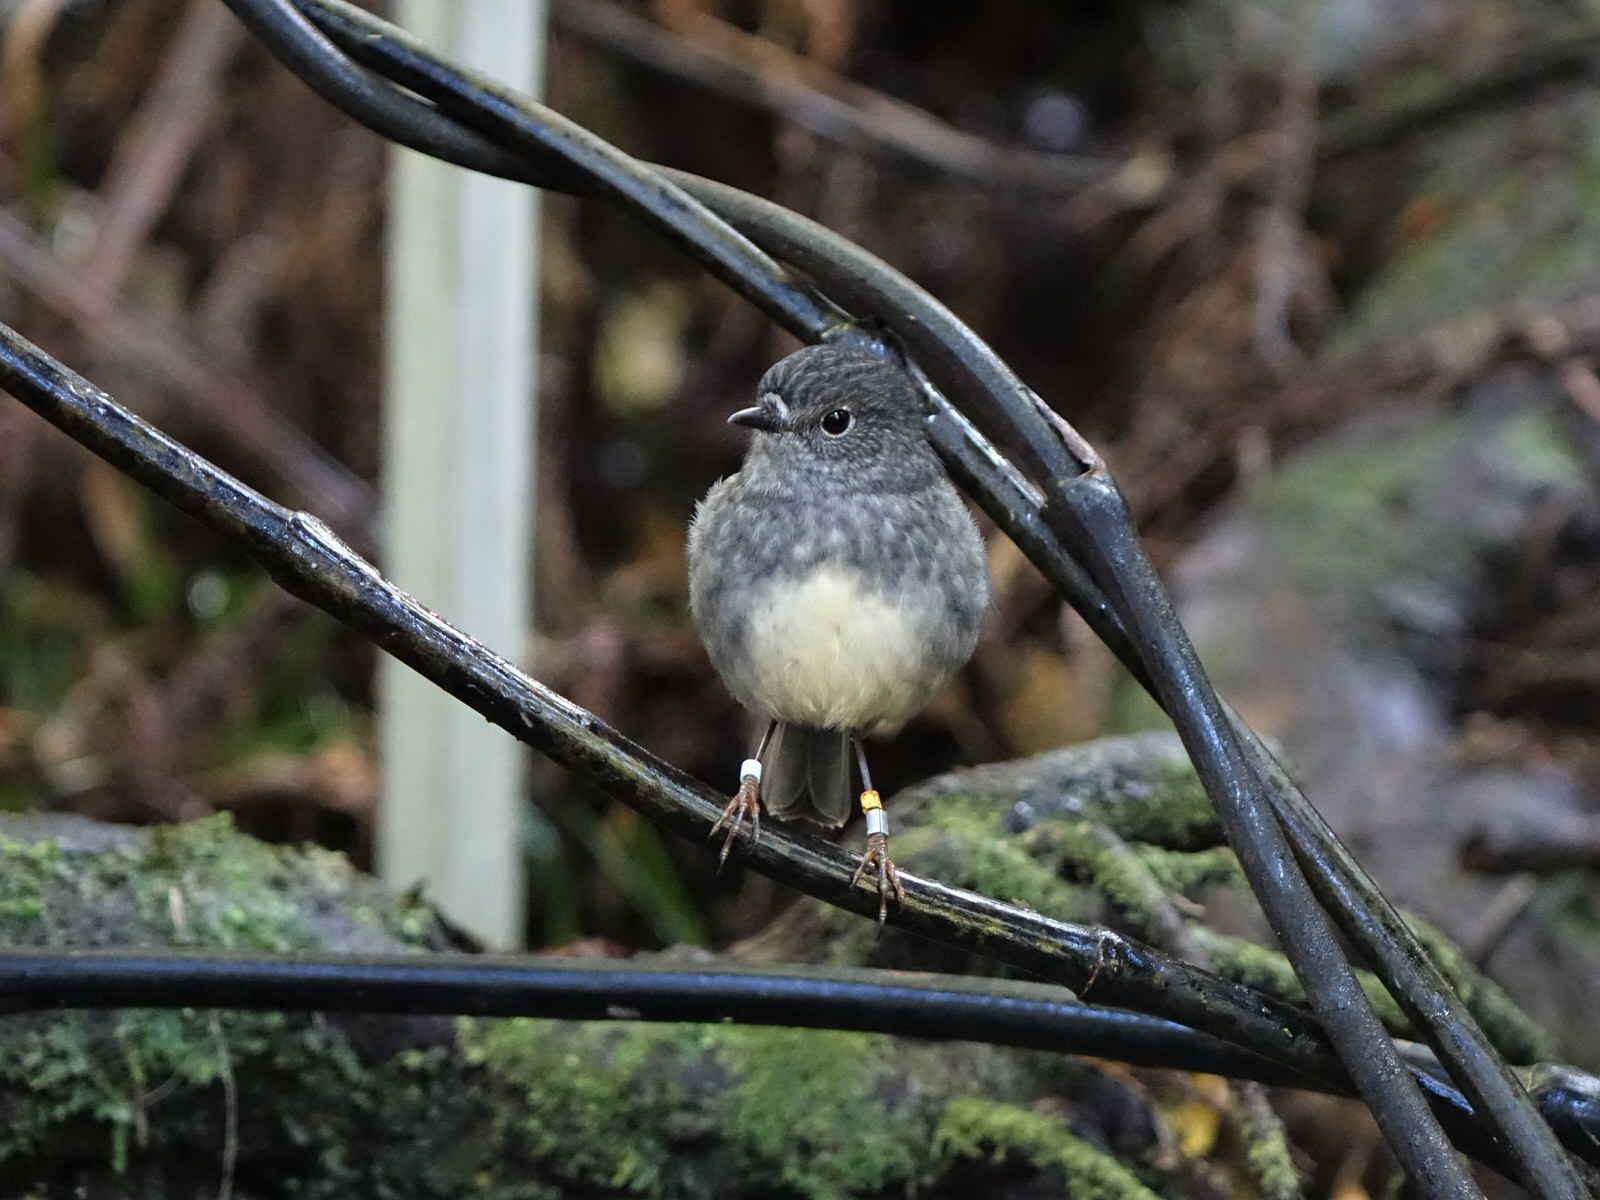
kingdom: Animalia
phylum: Chordata
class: Aves
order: Passeriformes
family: Petroicidae
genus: Petroica
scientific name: Petroica australis
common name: New zealand robin
